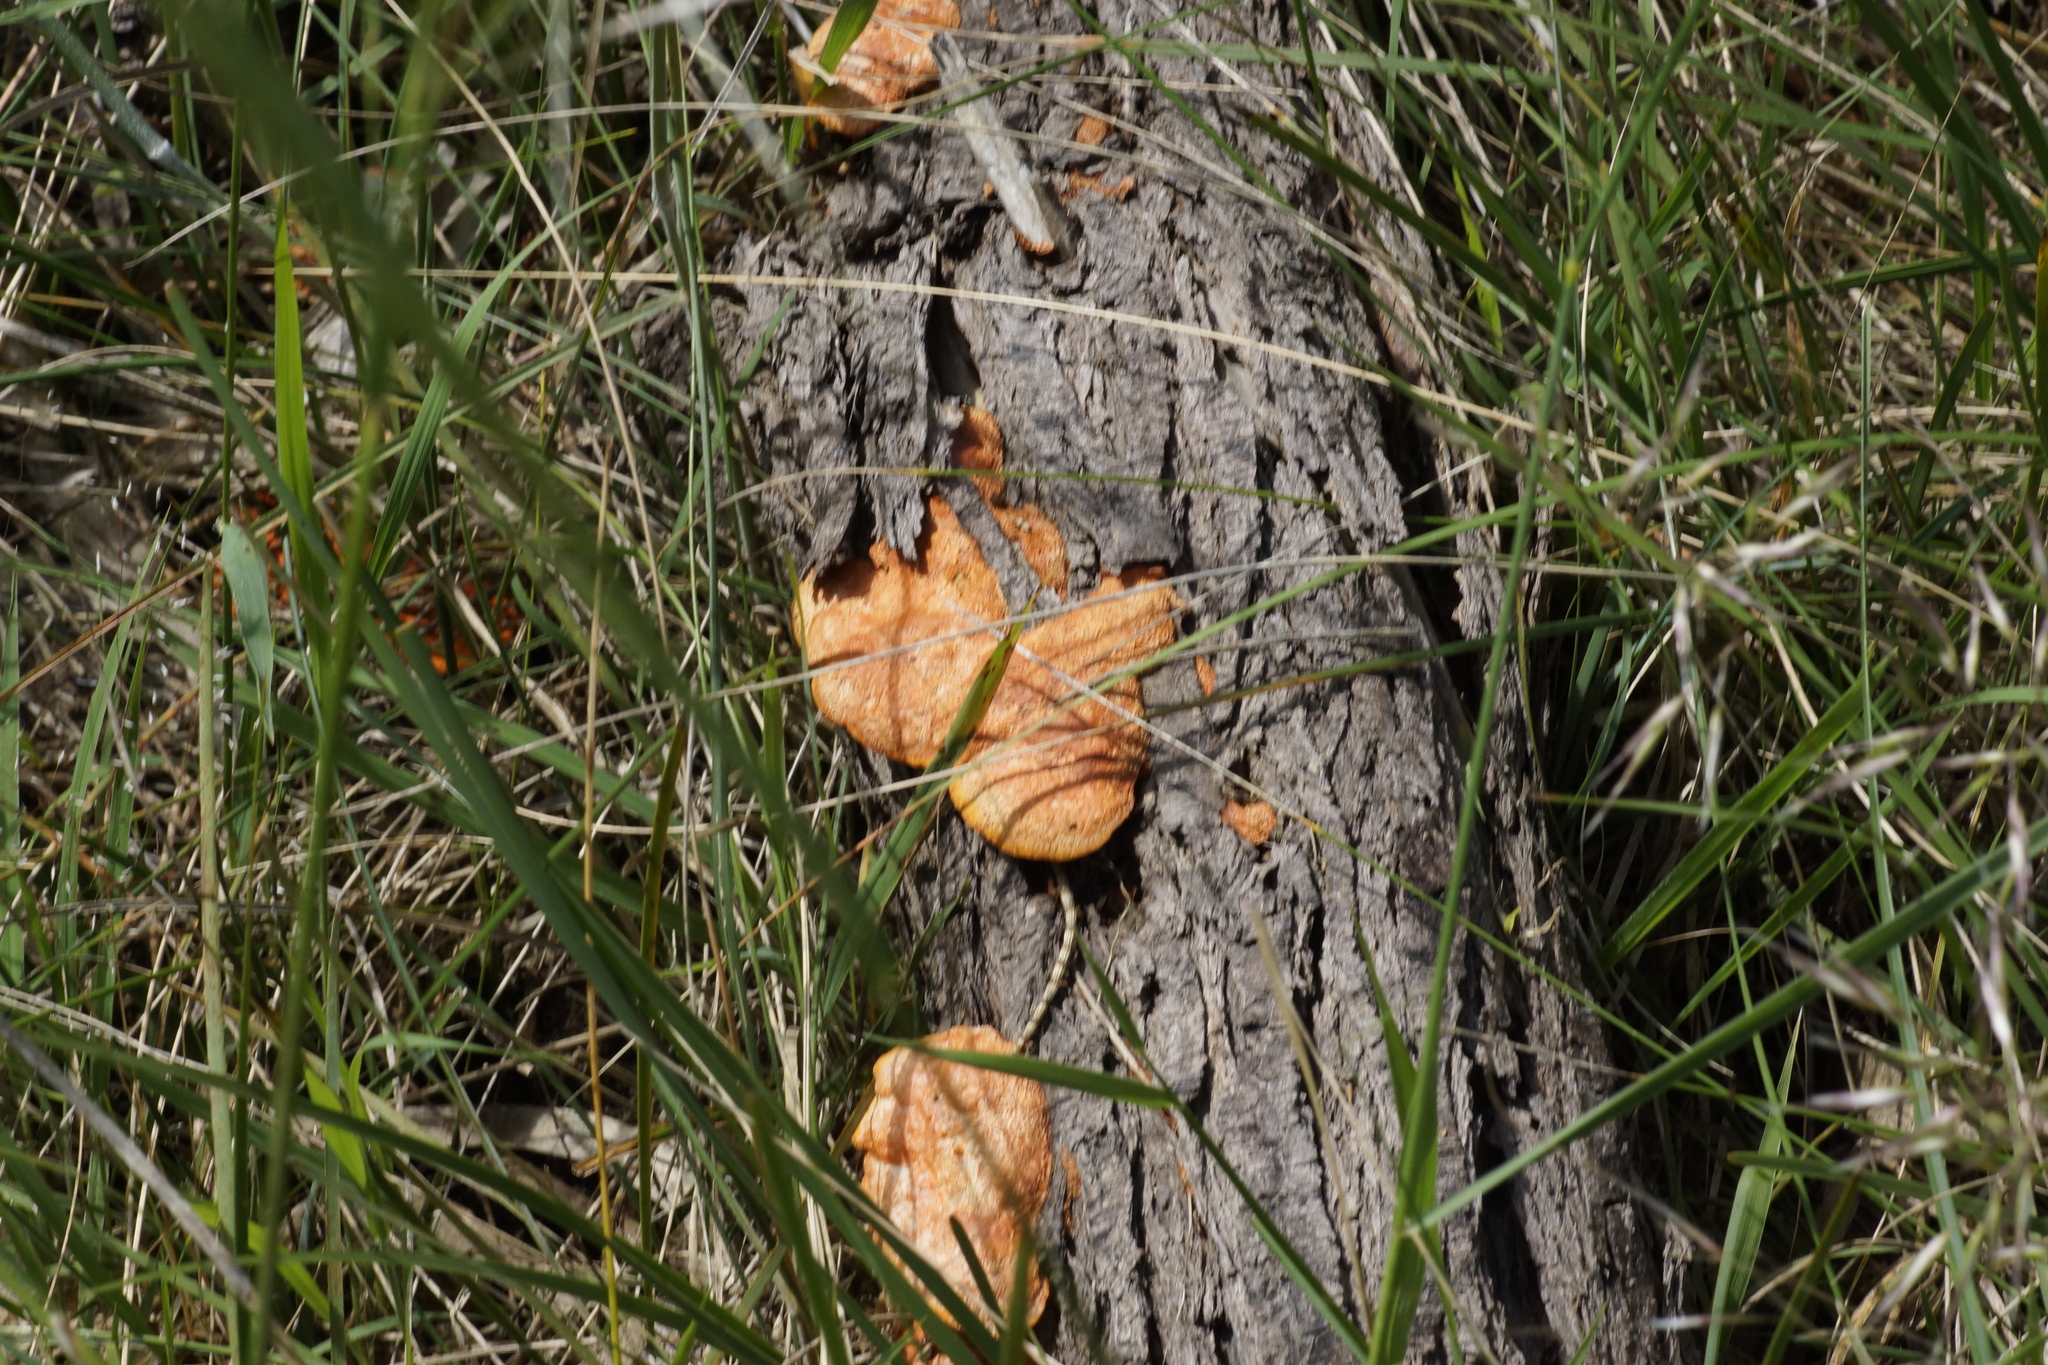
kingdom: Fungi
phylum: Basidiomycota
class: Agaricomycetes
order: Polyporales
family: Polyporaceae
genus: Trametes
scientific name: Trametes coccinea
